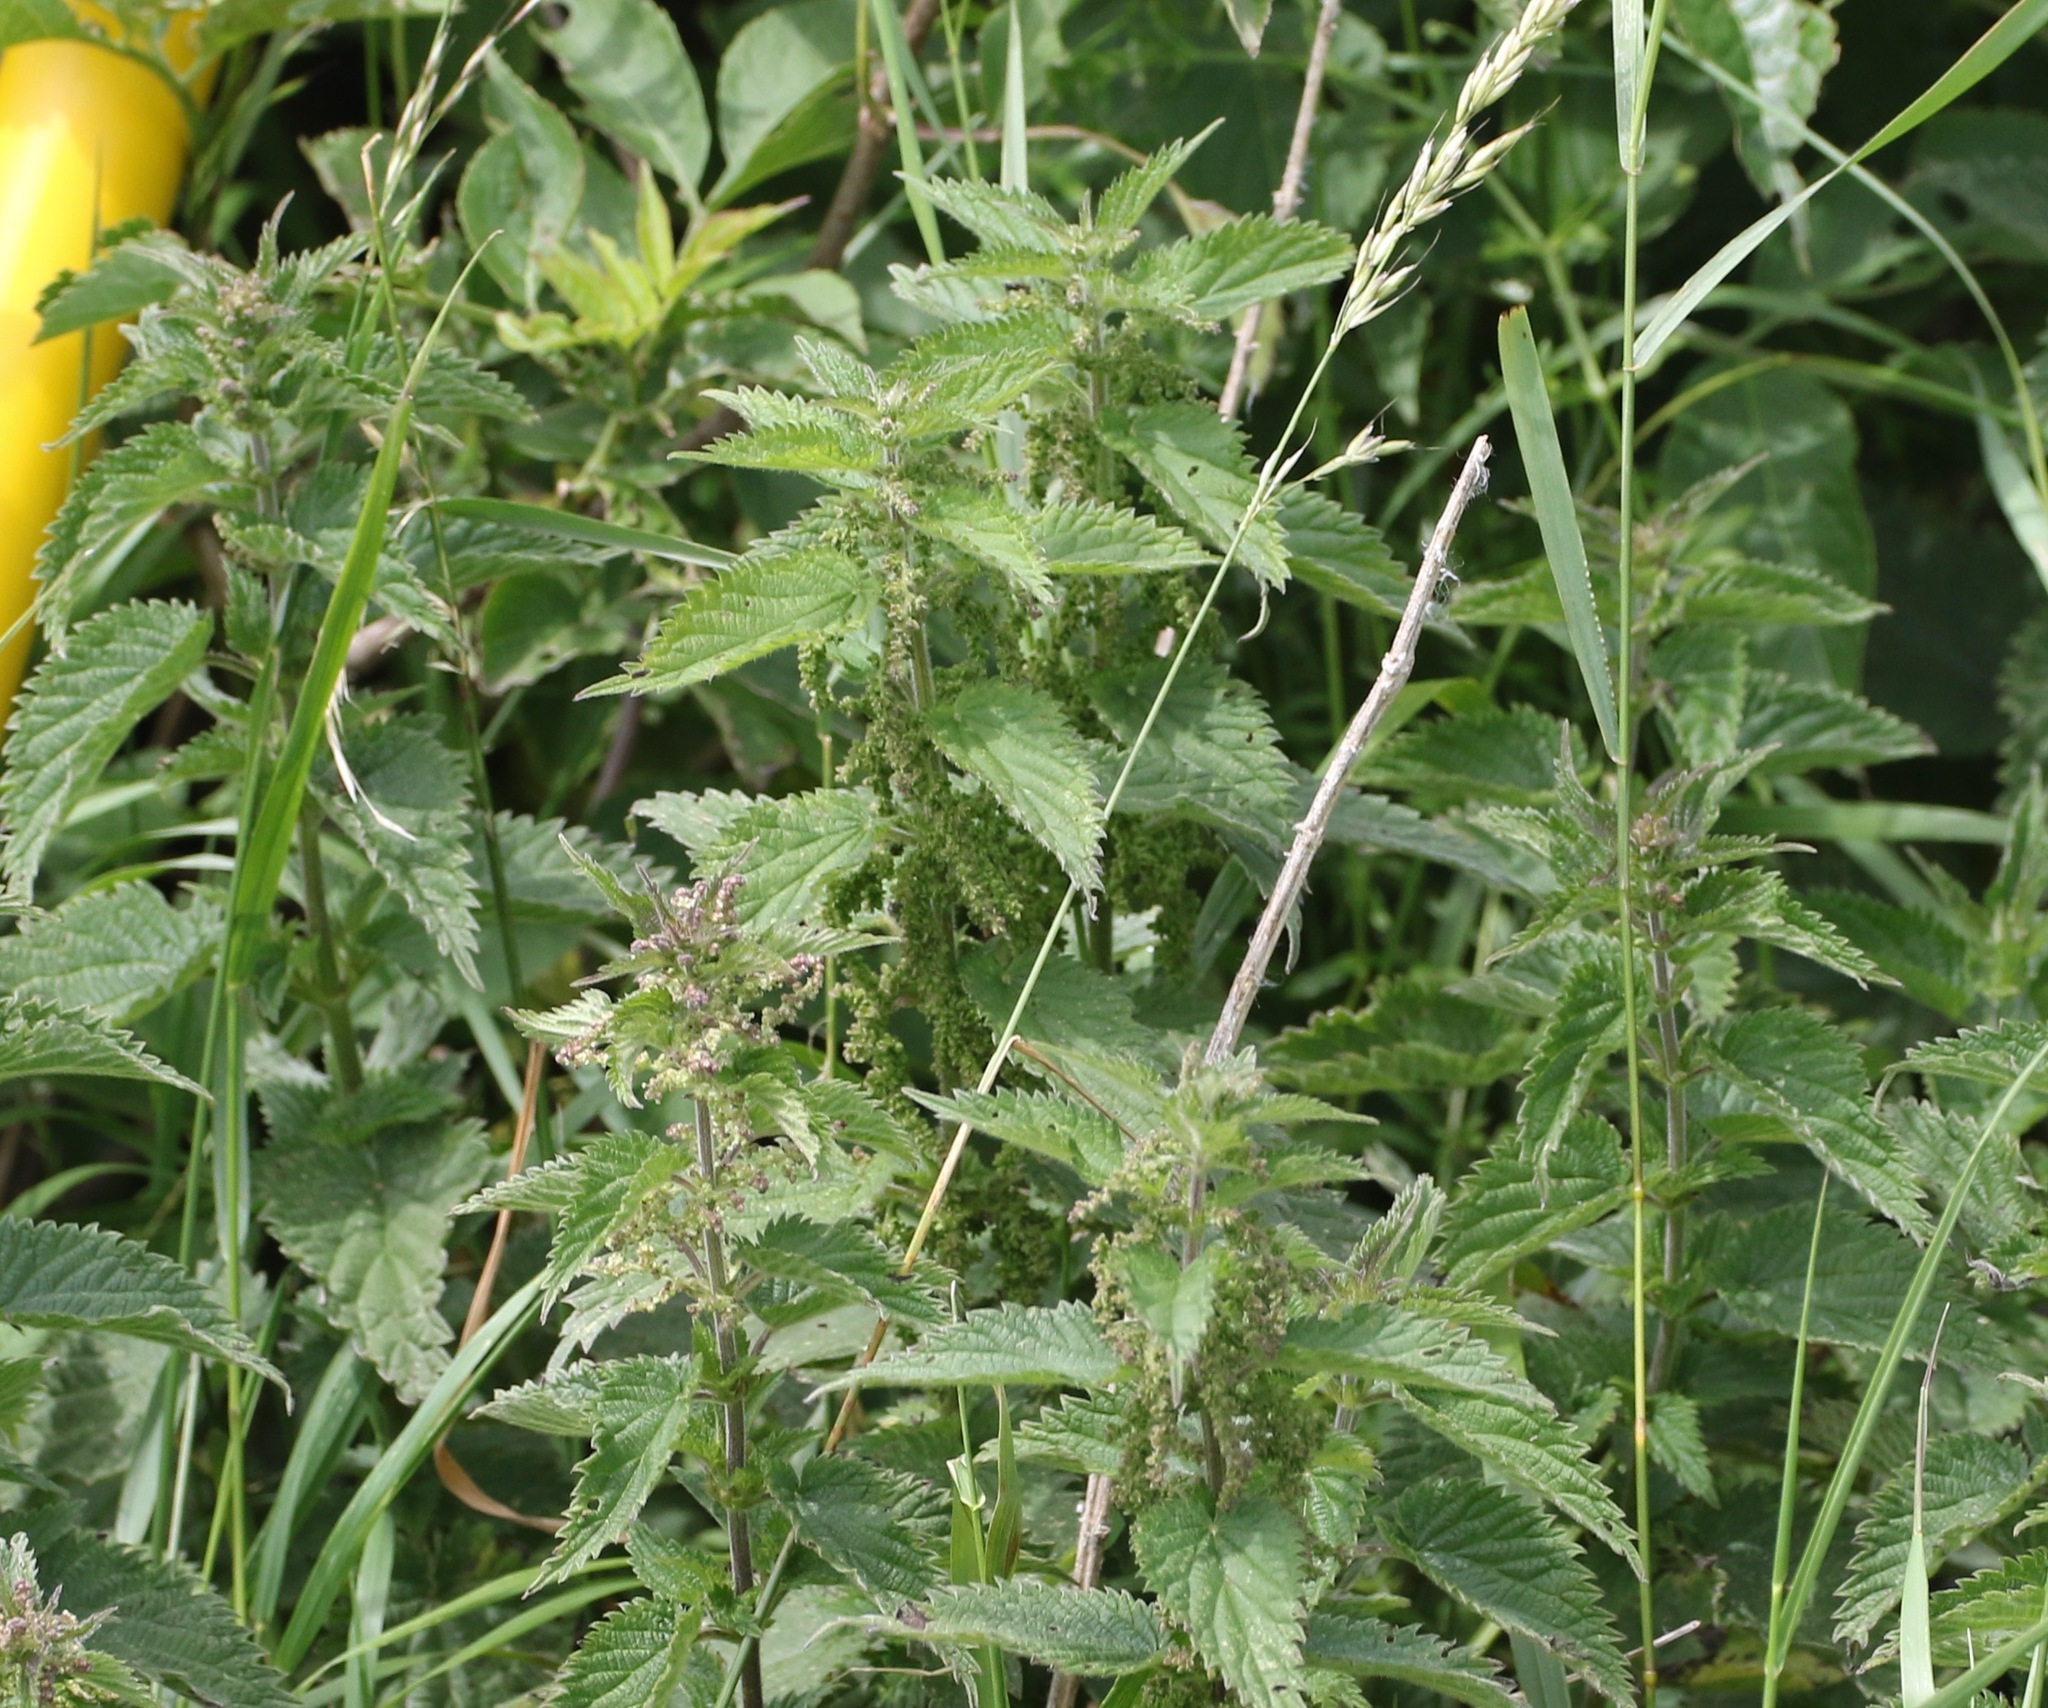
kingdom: Plantae
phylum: Tracheophyta
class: Magnoliopsida
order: Rosales
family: Urticaceae
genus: Urtica
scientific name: Urtica dioica
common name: Common nettle
